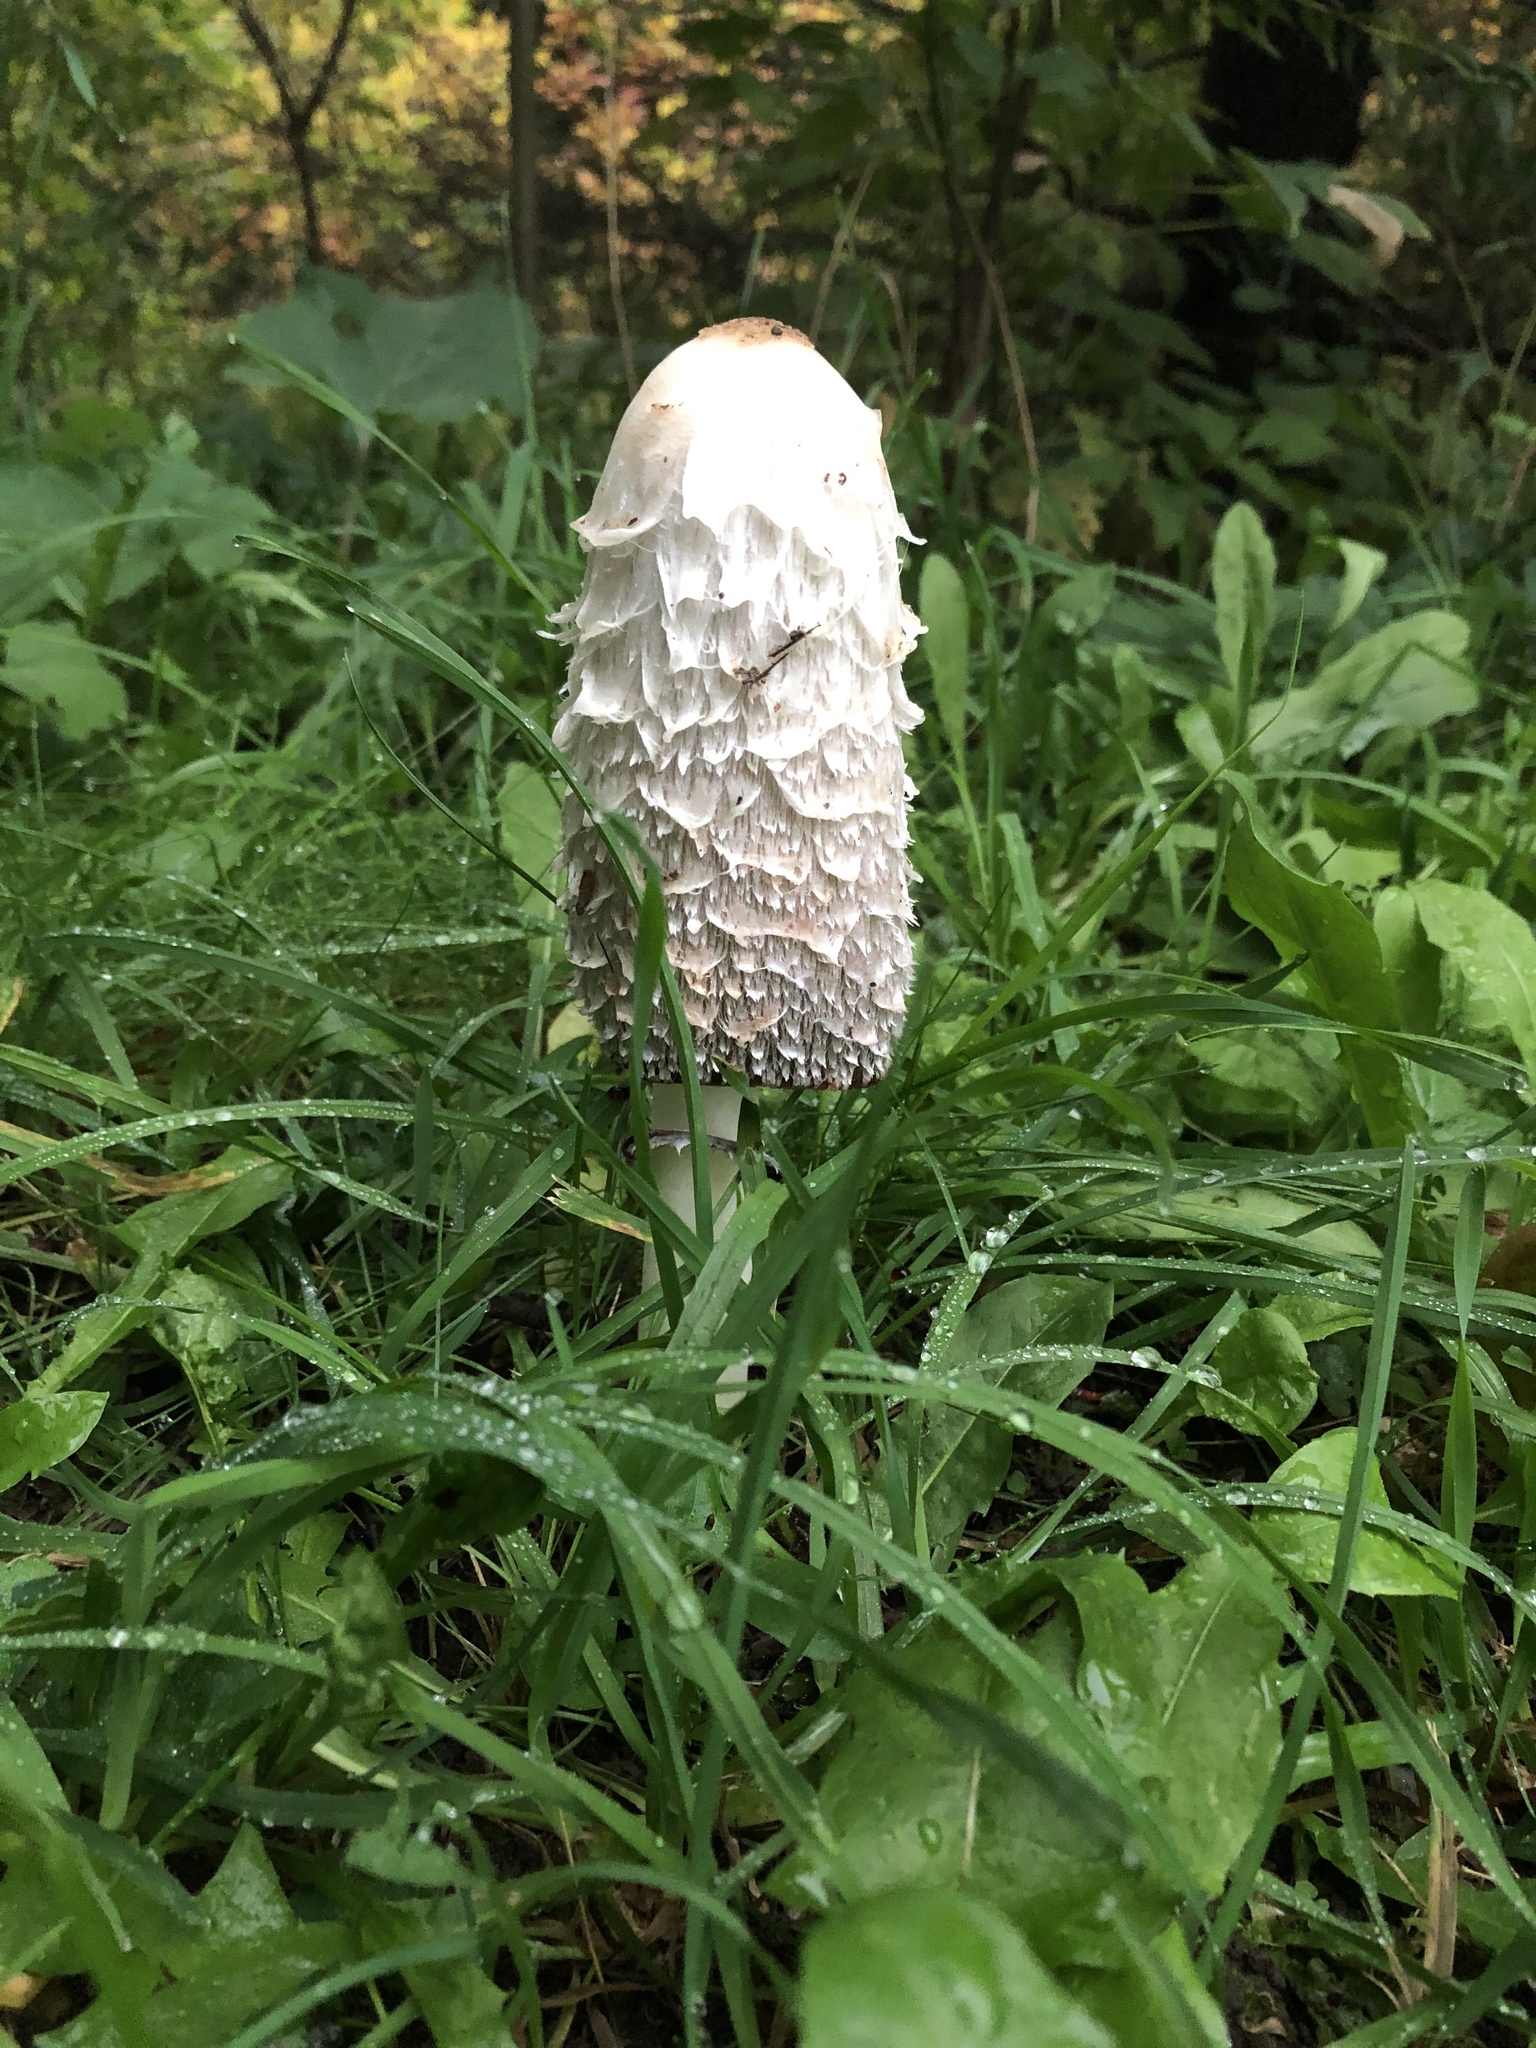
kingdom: Fungi
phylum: Basidiomycota
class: Agaricomycetes
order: Agaricales
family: Agaricaceae
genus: Coprinus
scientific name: Coprinus comatus
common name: Lawyer's wig
